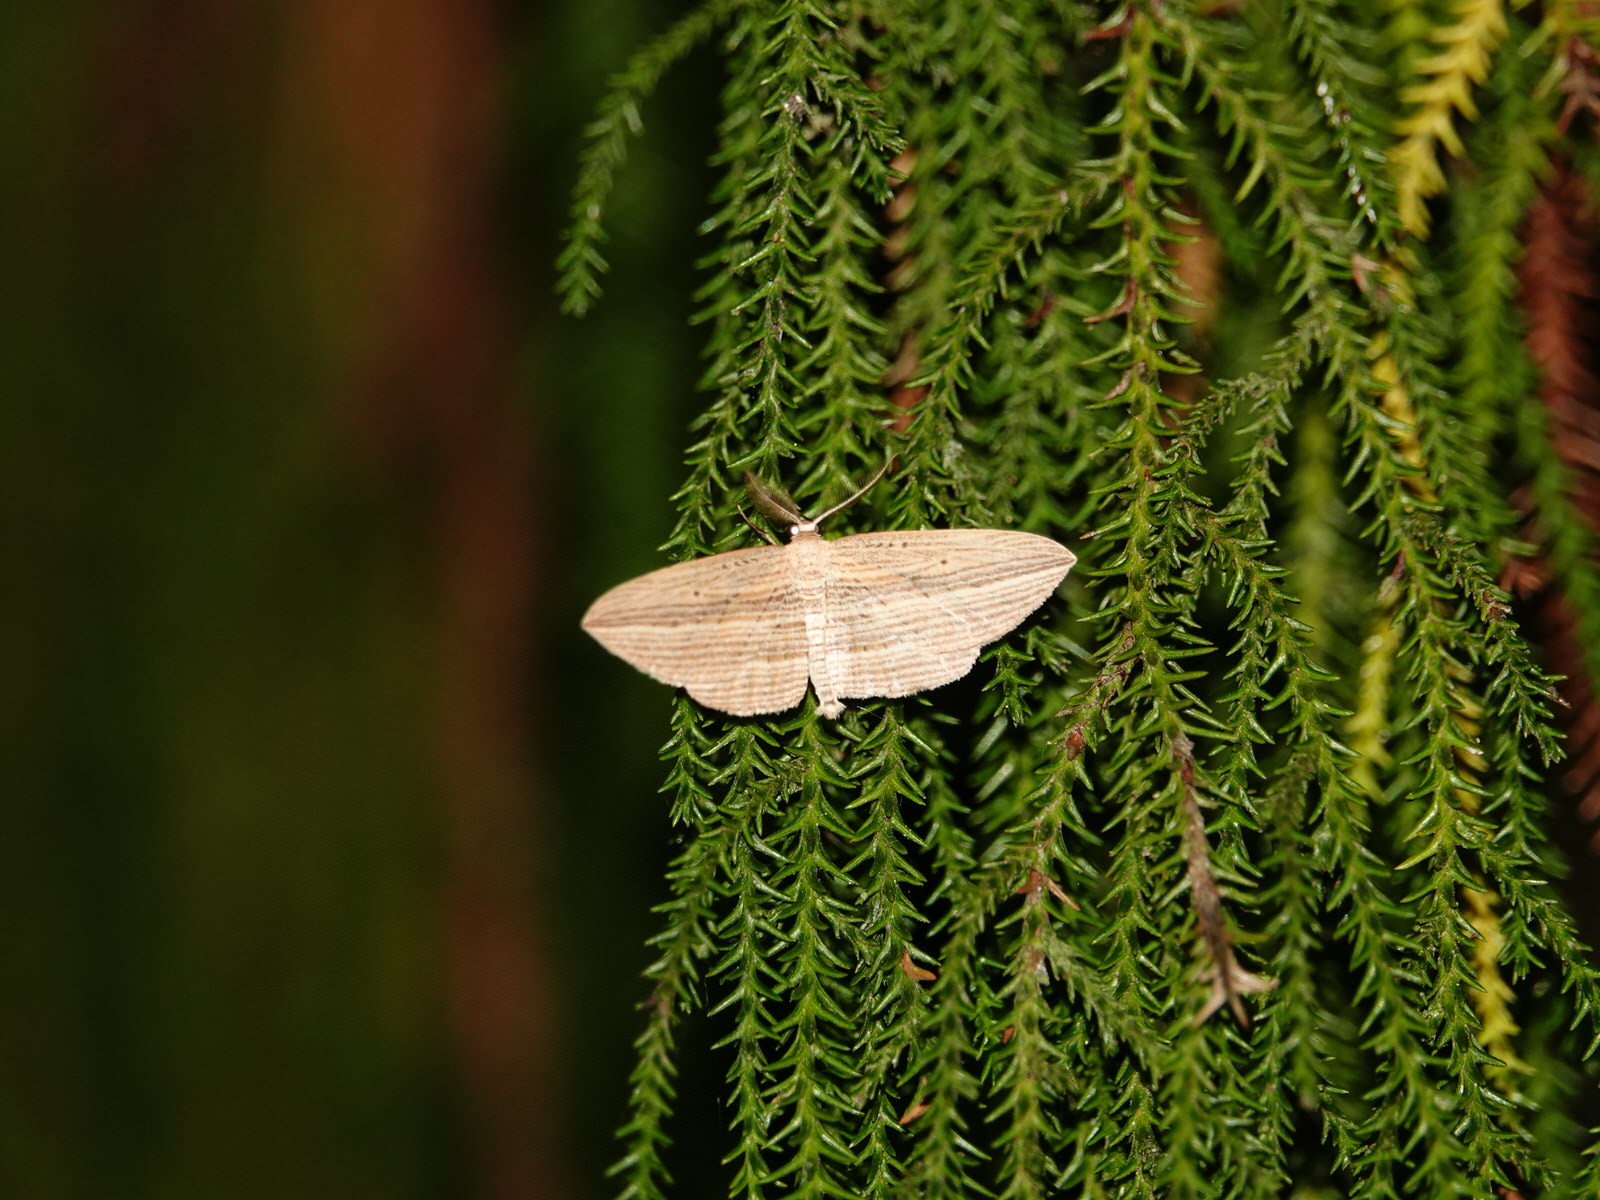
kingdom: Animalia
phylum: Arthropoda
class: Insecta
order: Lepidoptera
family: Geometridae
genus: Epiphryne
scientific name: Epiphryne verriculata
